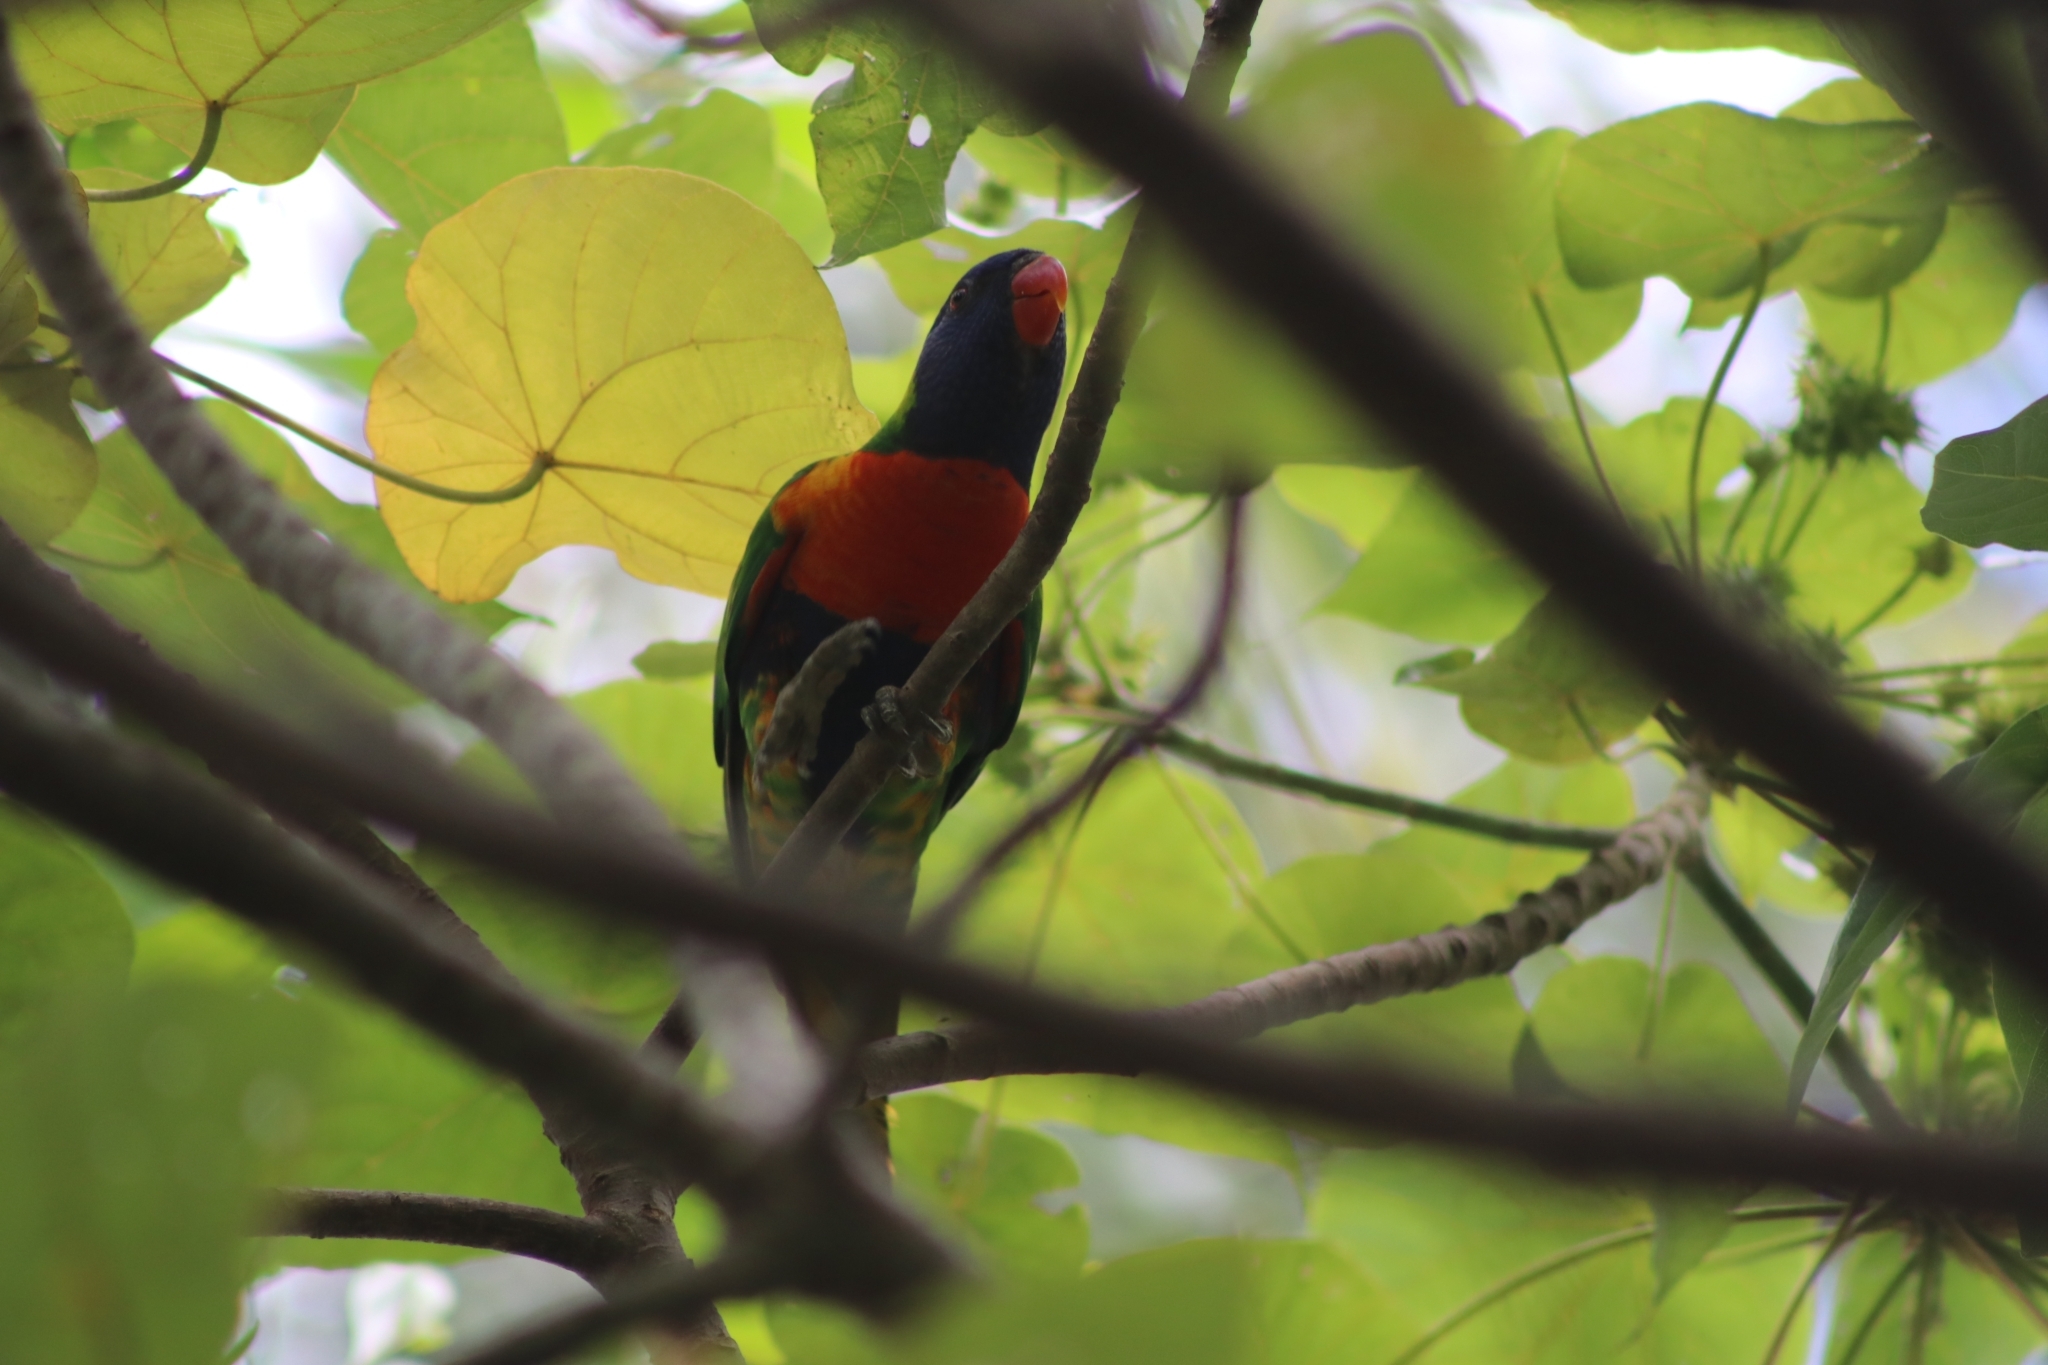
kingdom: Animalia
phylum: Chordata
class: Aves
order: Psittaciformes
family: Psittacidae
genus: Trichoglossus
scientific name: Trichoglossus haematodus
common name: Coconut lorikeet
